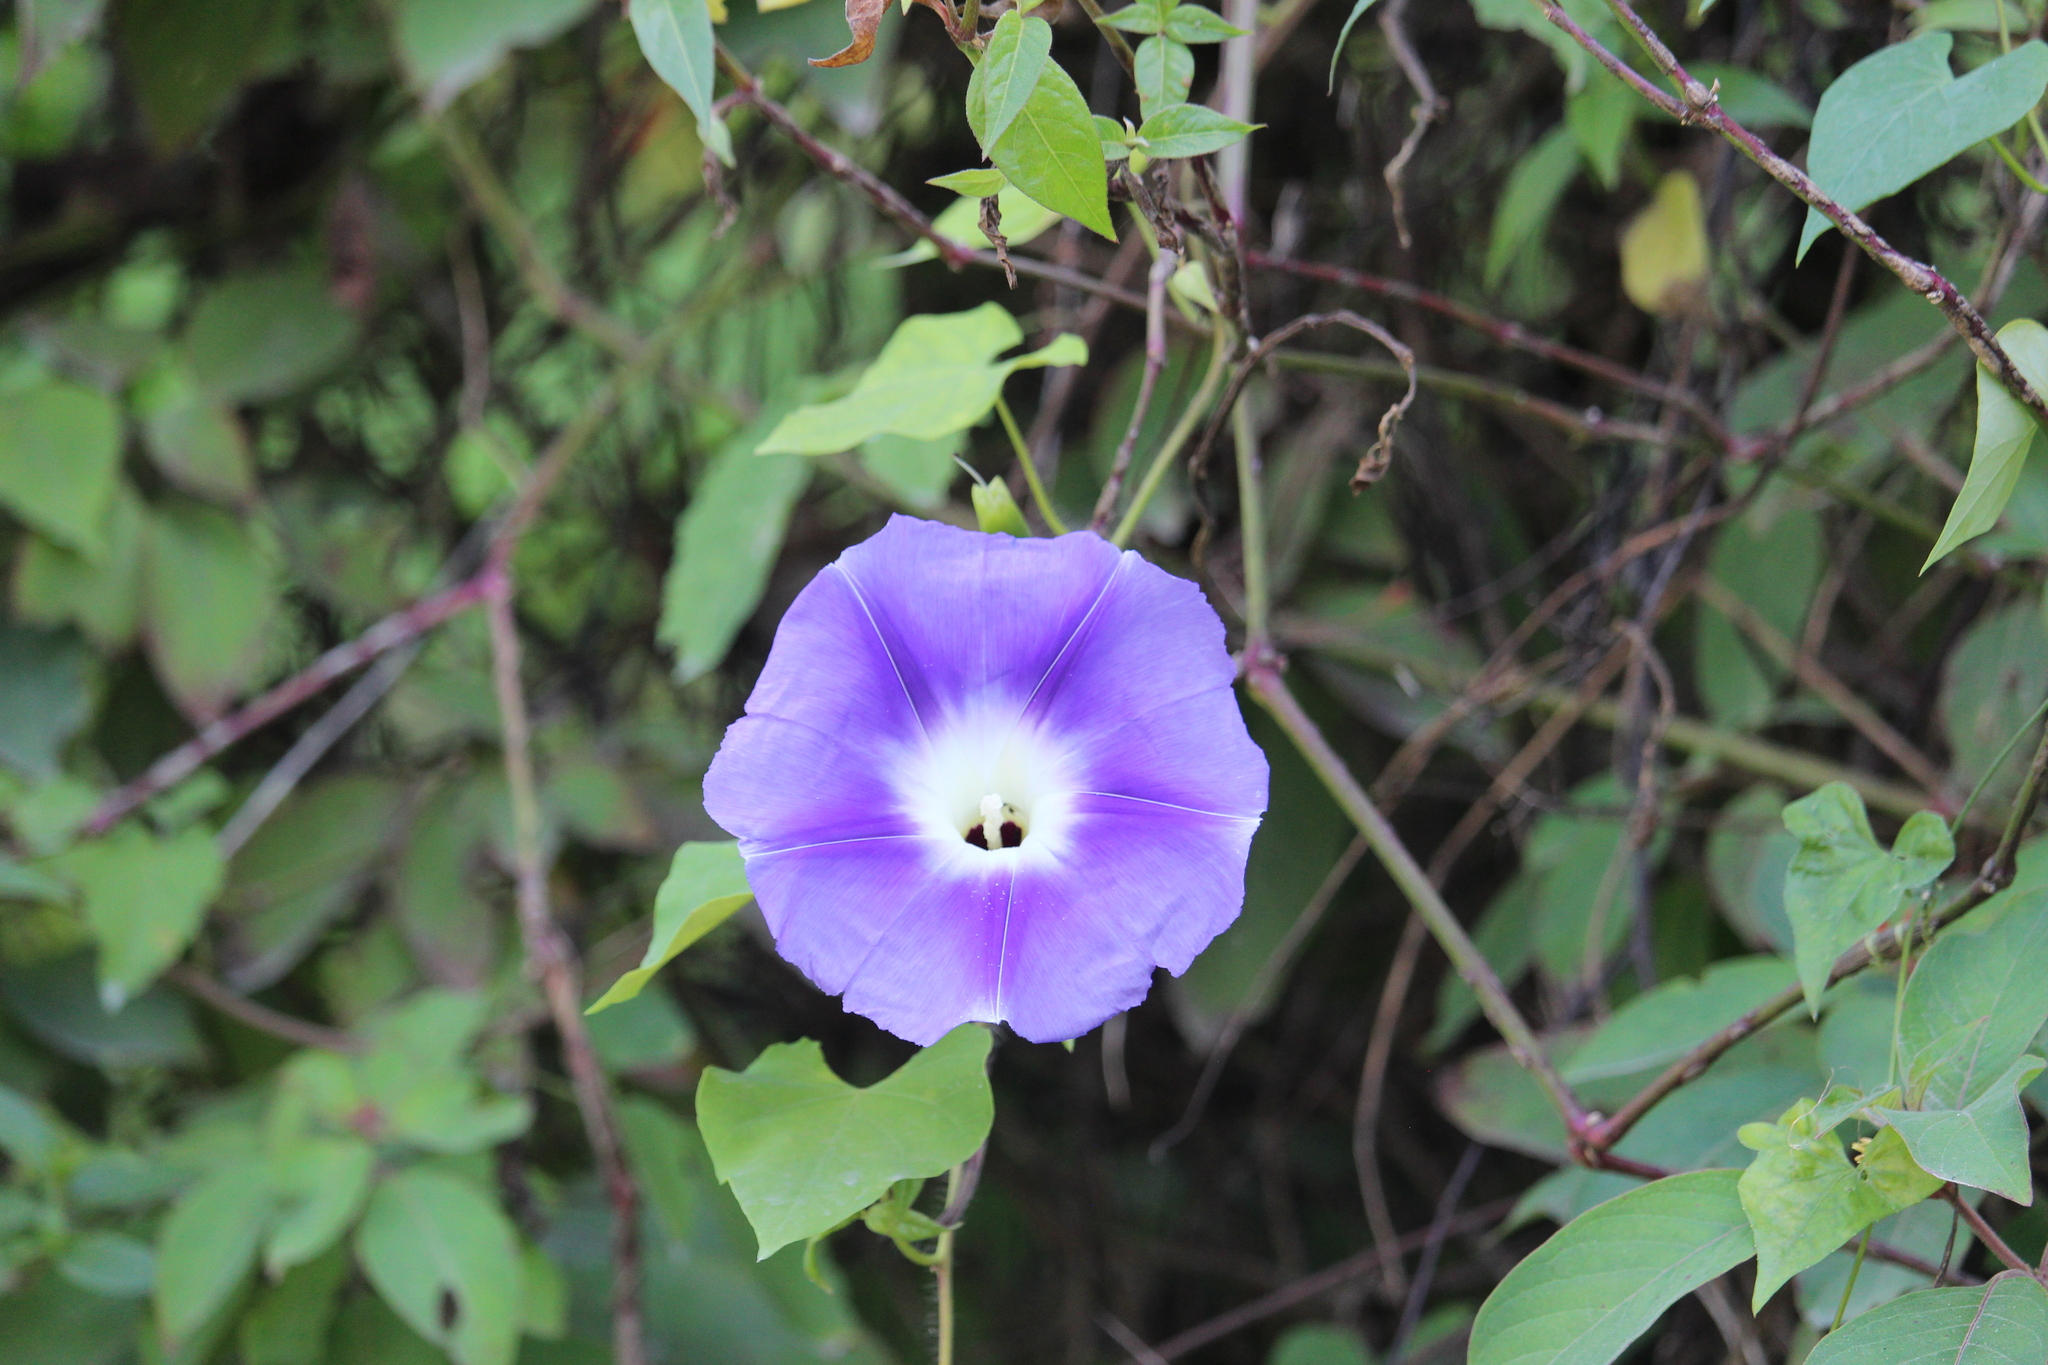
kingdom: Plantae
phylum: Tracheophyta
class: Magnoliopsida
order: Solanales
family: Convolvulaceae
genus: Ipomoea
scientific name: Ipomoea clavata
